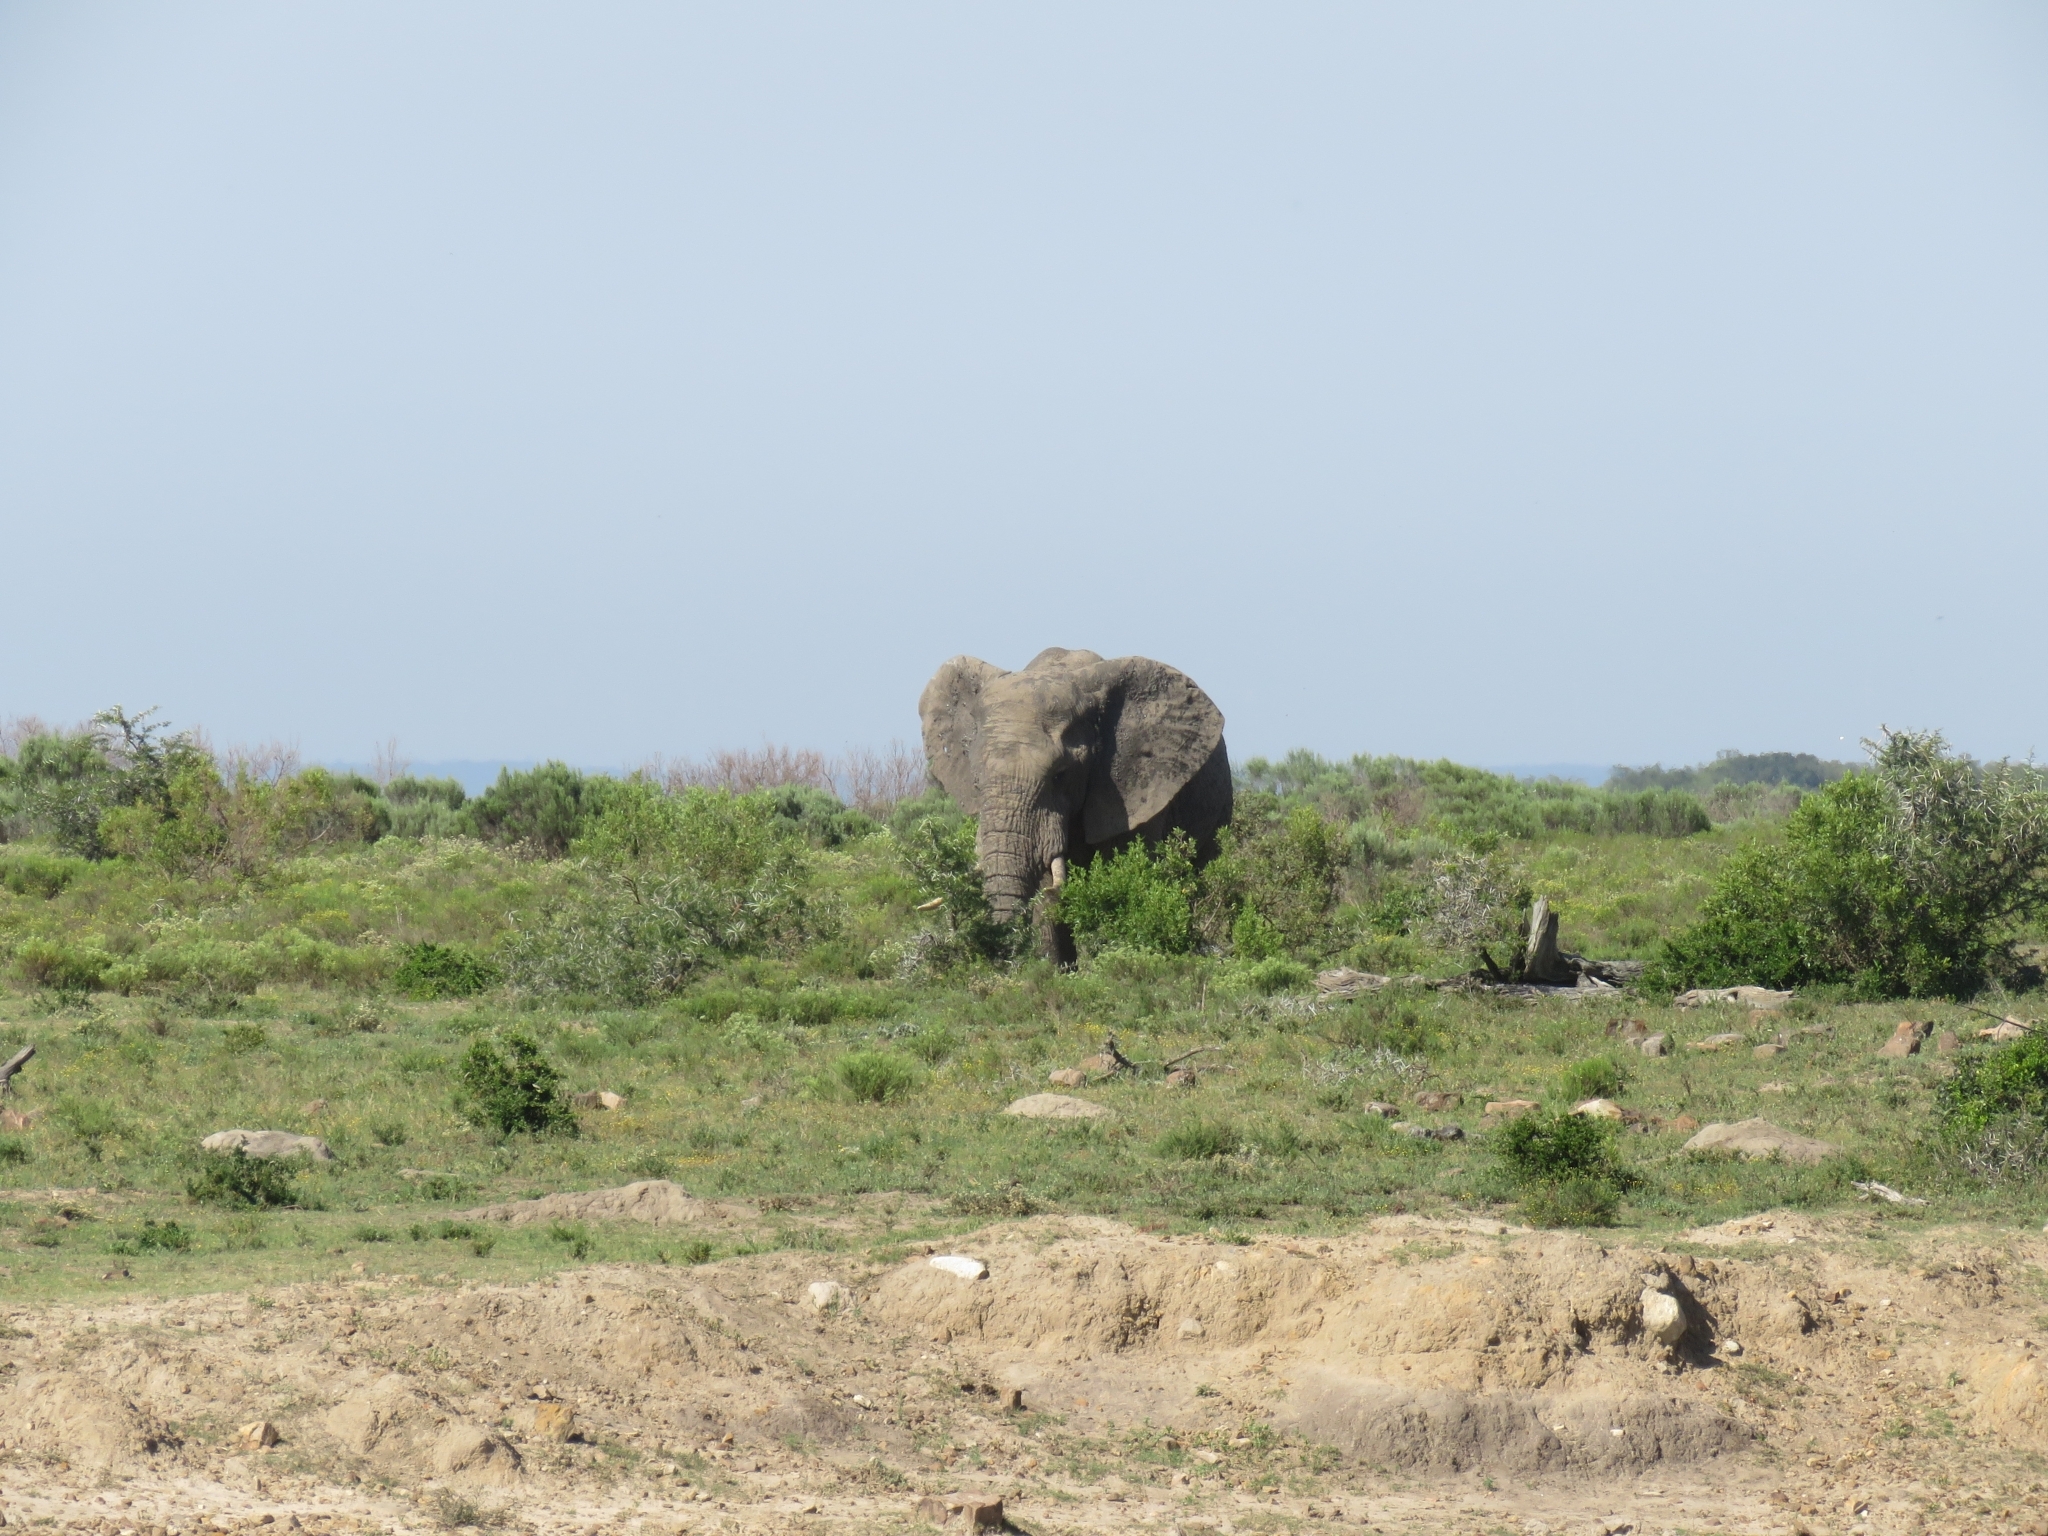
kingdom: Animalia
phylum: Chordata
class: Mammalia
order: Proboscidea
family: Elephantidae
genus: Loxodonta
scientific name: Loxodonta africana
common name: African elephant
